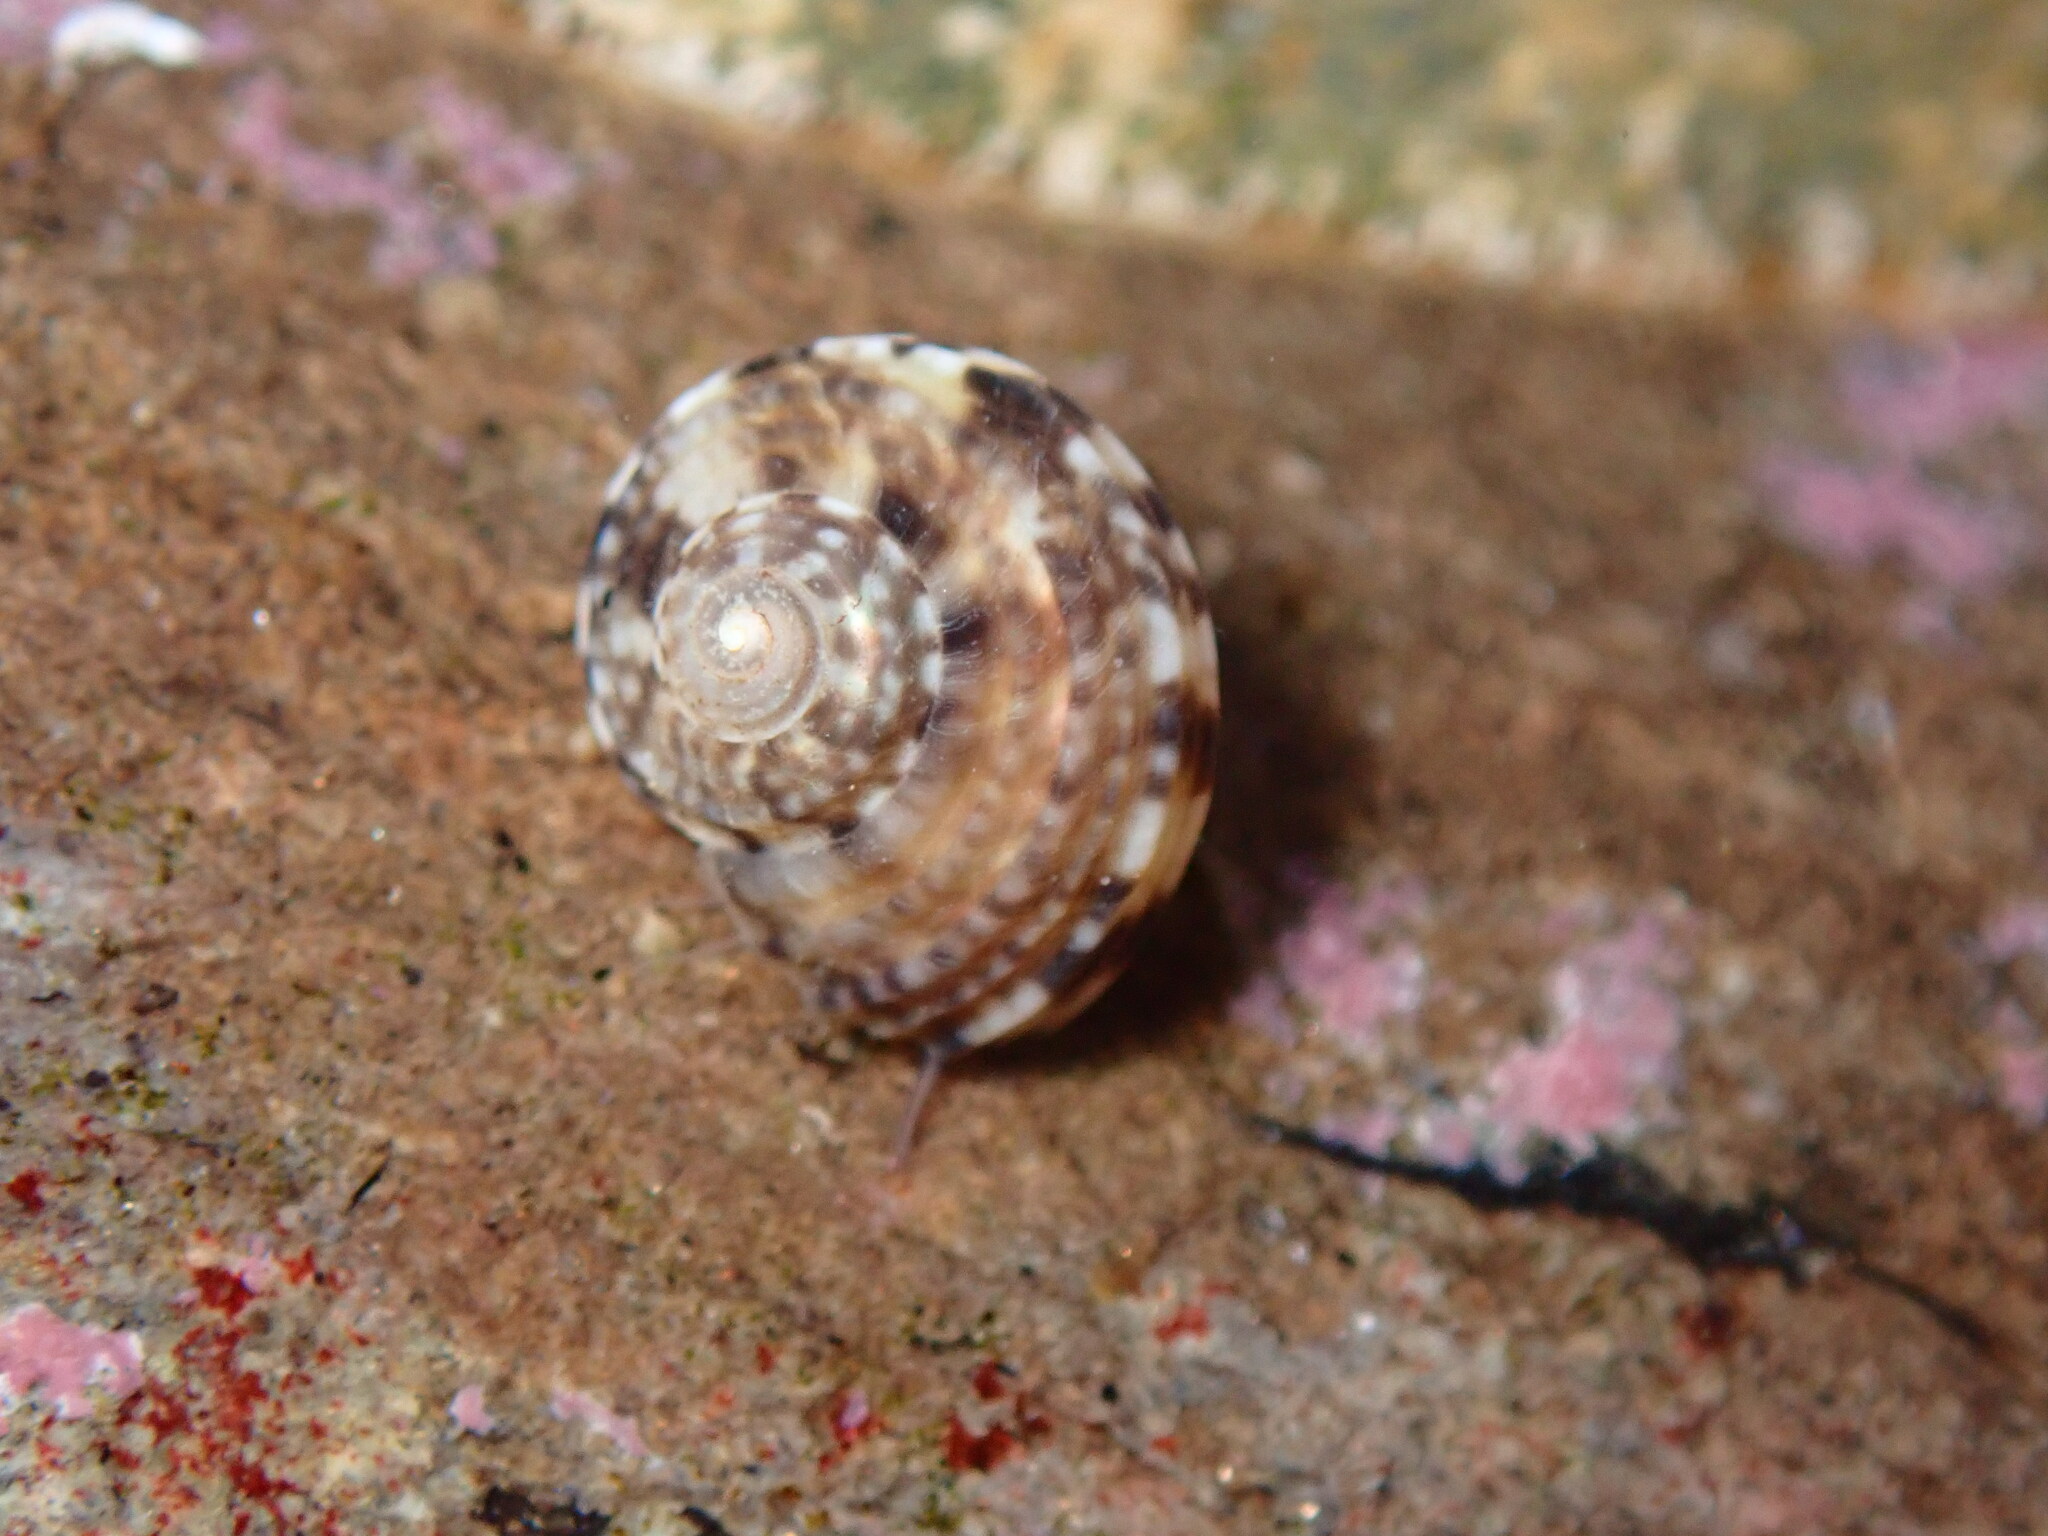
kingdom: Animalia
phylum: Mollusca
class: Gastropoda
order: Trochida
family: Tegulidae
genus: Tegula
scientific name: Tegula eiseni
